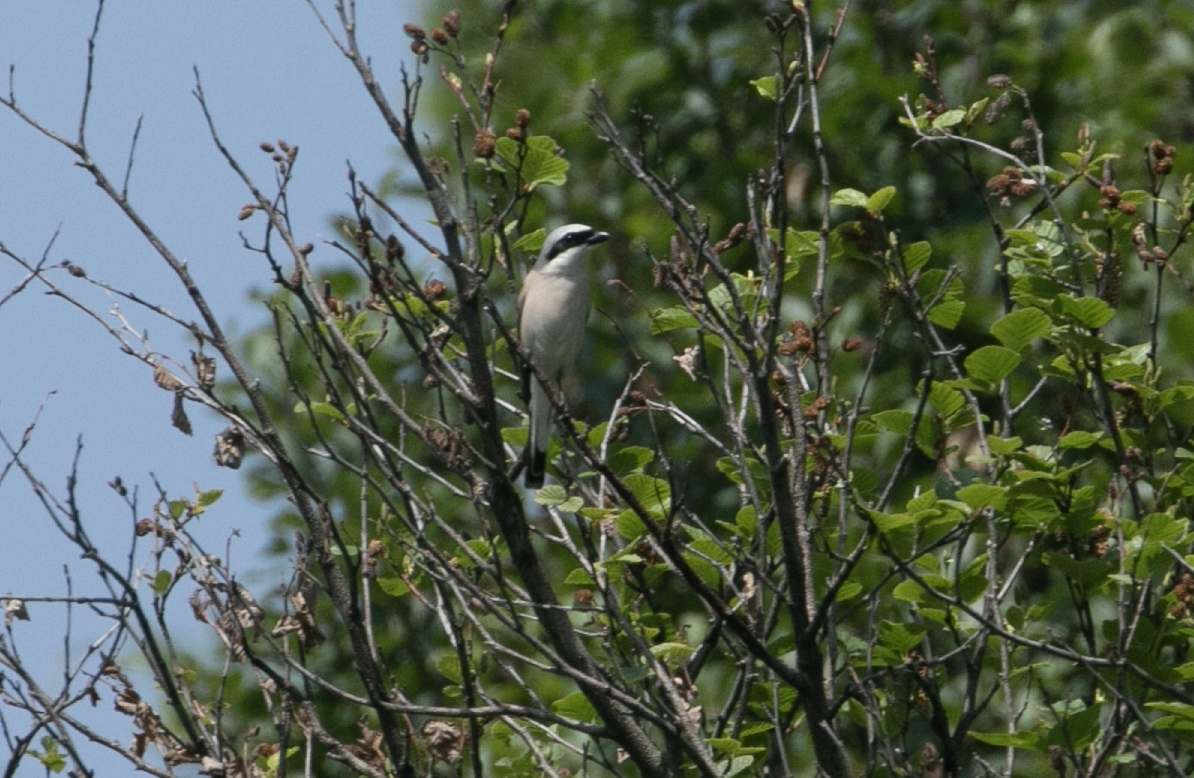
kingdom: Animalia
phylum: Chordata
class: Aves
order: Passeriformes
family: Laniidae
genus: Lanius
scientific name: Lanius collurio
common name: Red-backed shrike
